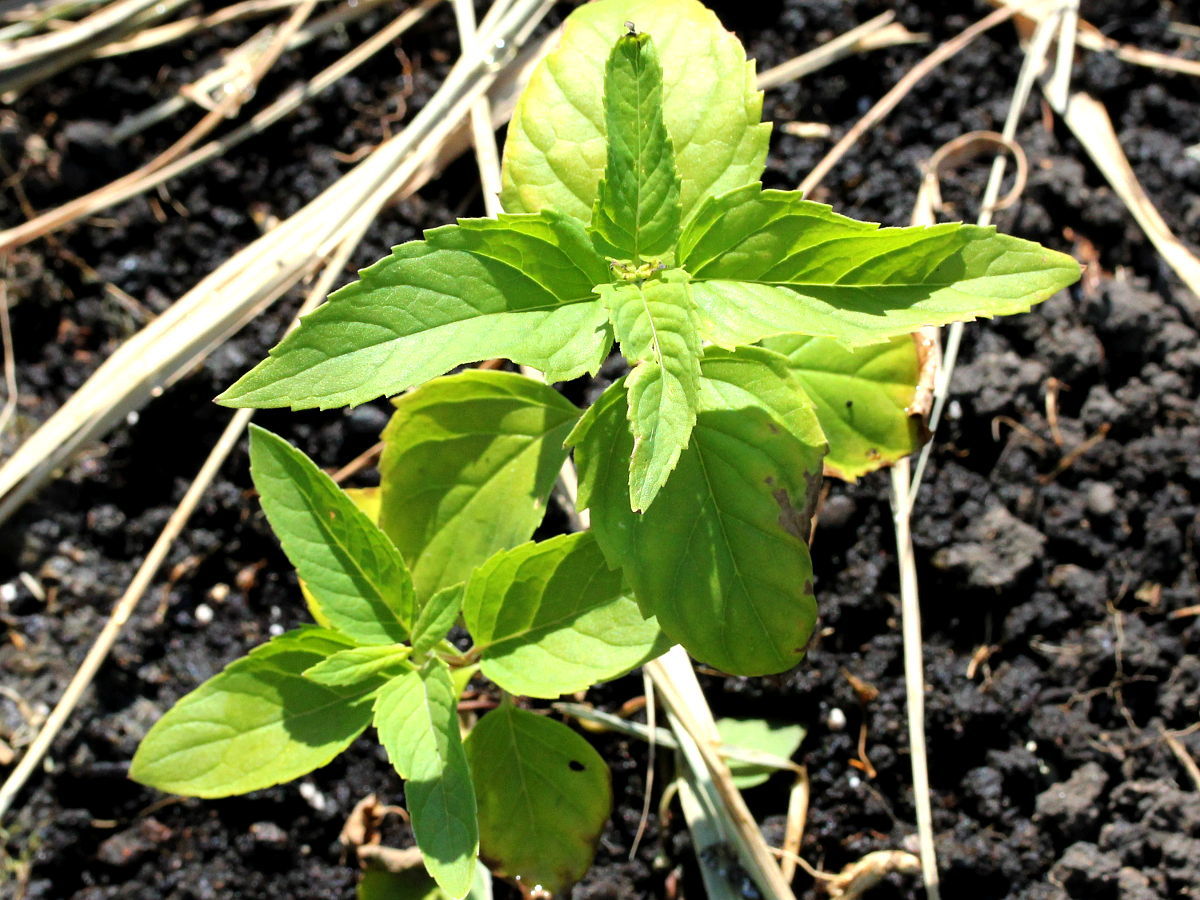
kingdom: Plantae
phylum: Tracheophyta
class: Magnoliopsida
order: Lamiales
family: Lamiaceae
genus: Monarda
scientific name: Monarda fistulosa
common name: Purple beebalm
